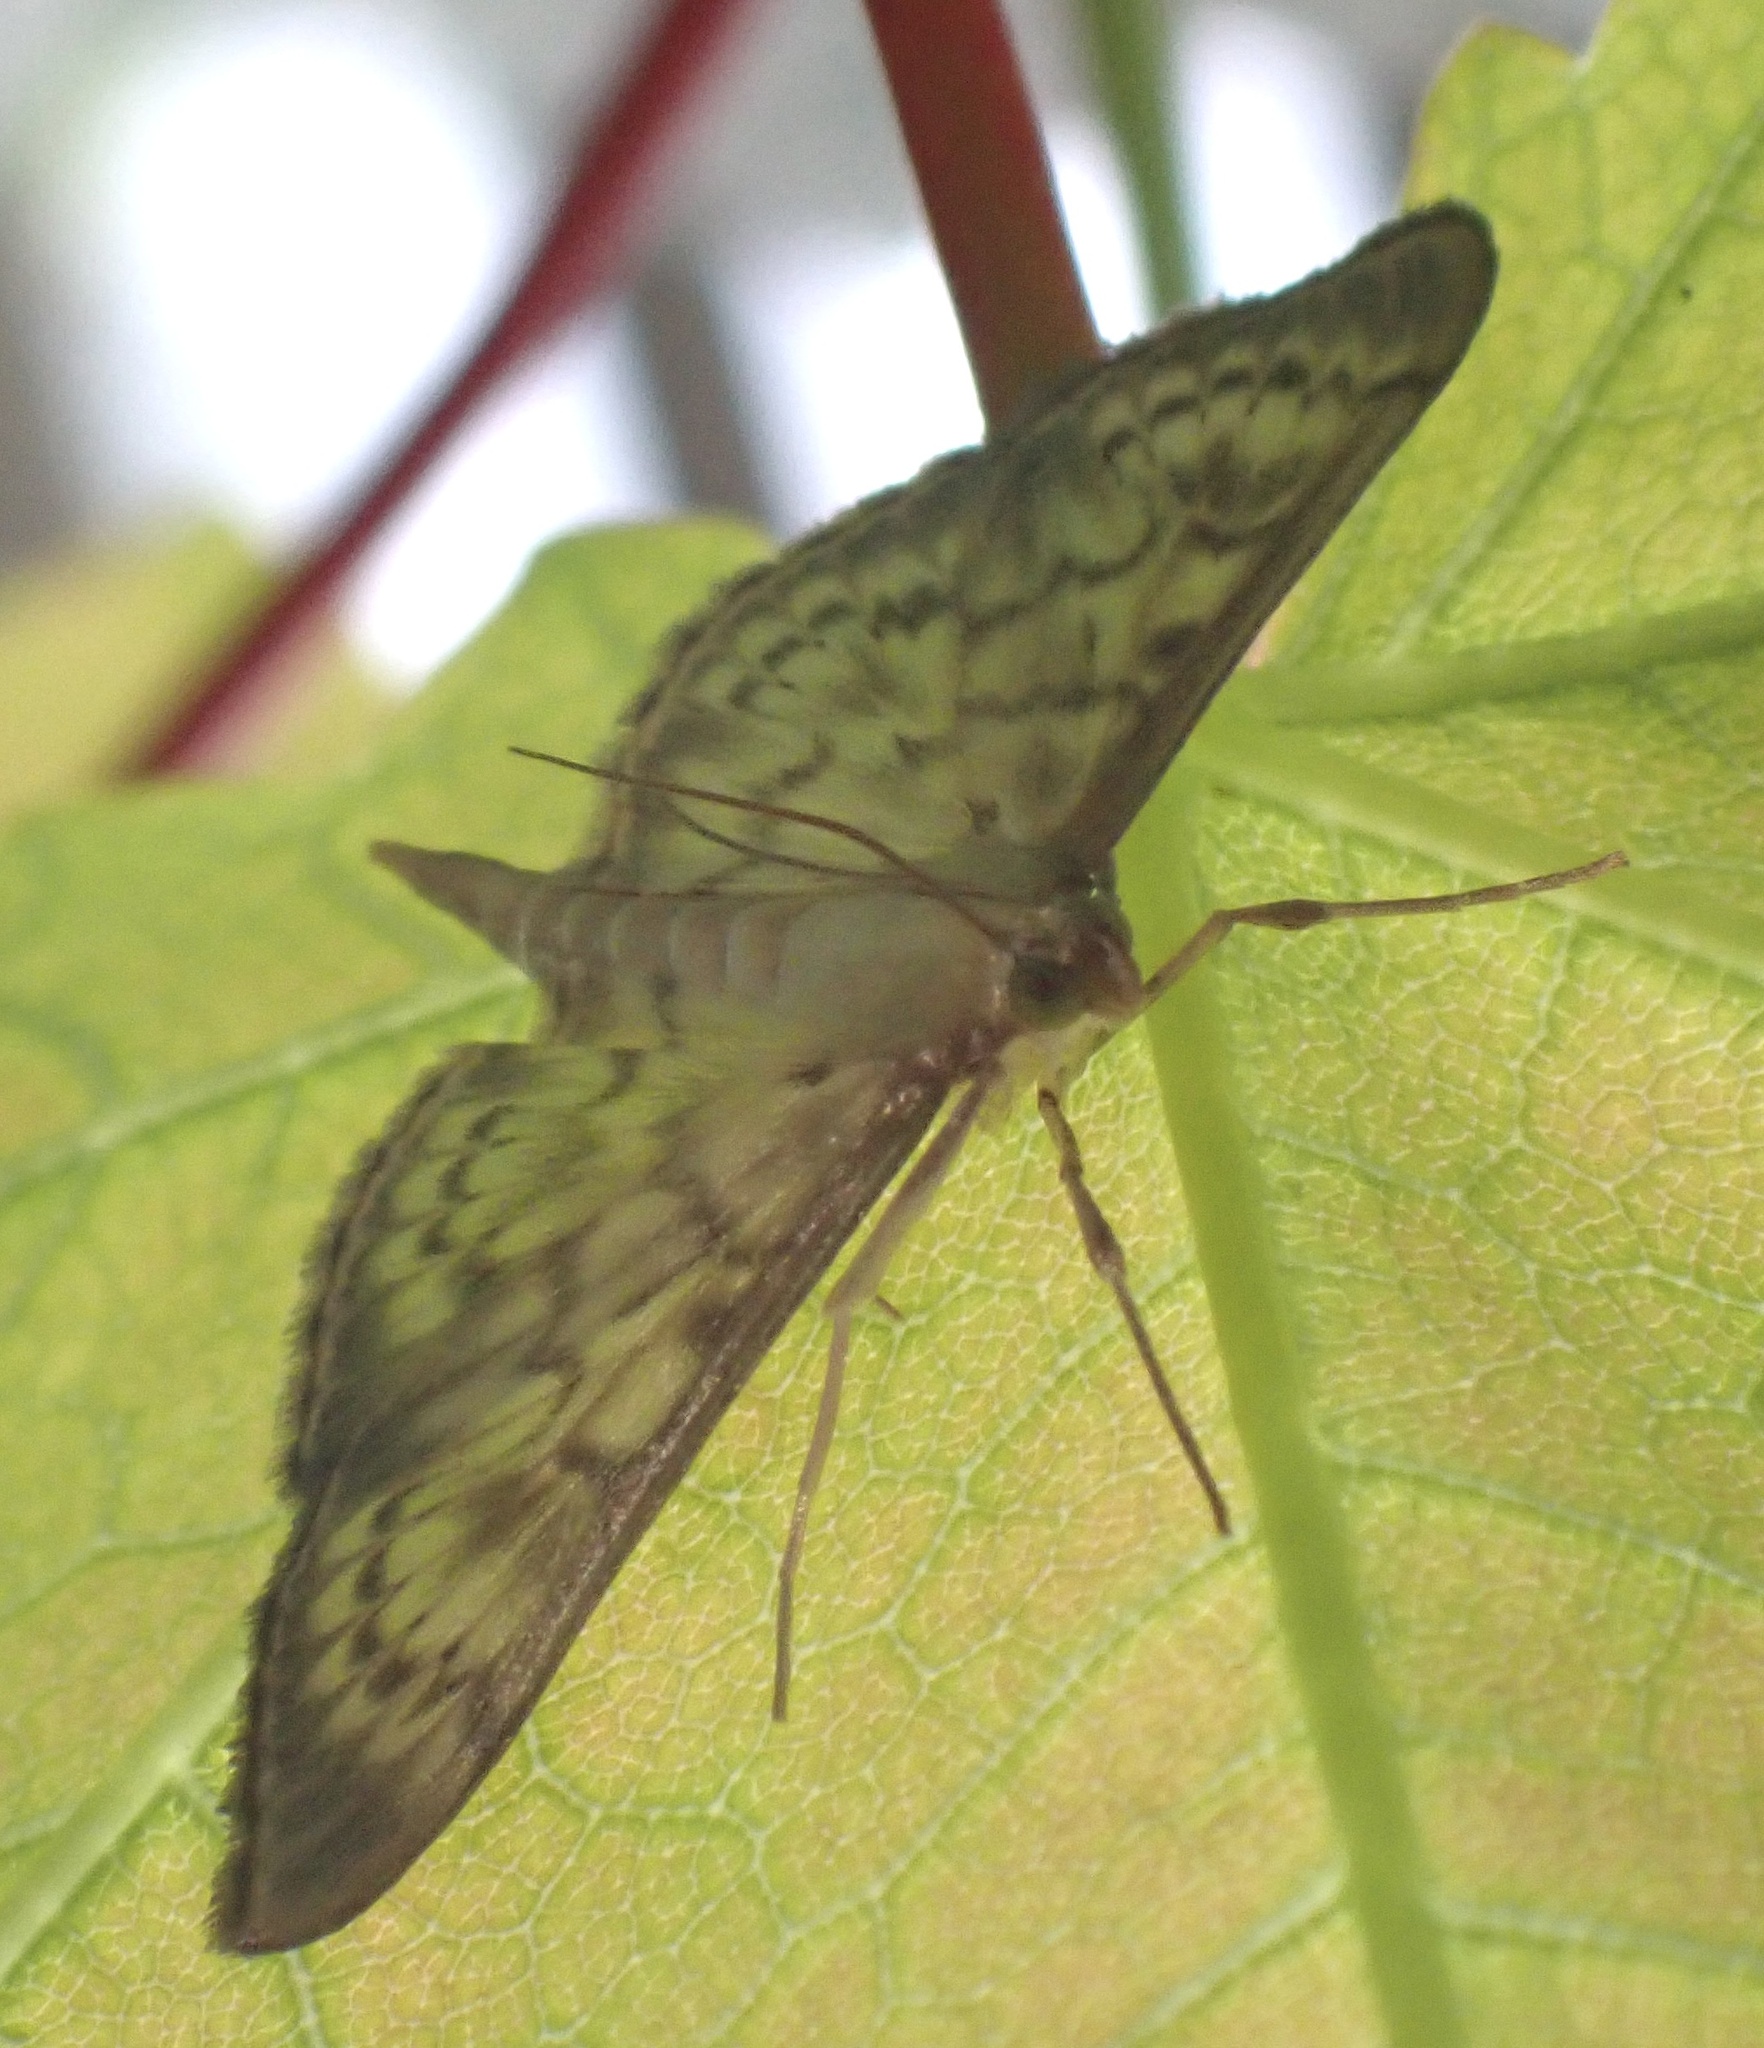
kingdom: Animalia
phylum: Arthropoda
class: Insecta
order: Lepidoptera
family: Crambidae
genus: Patania
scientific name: Patania ruralis
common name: Mother of pearl
